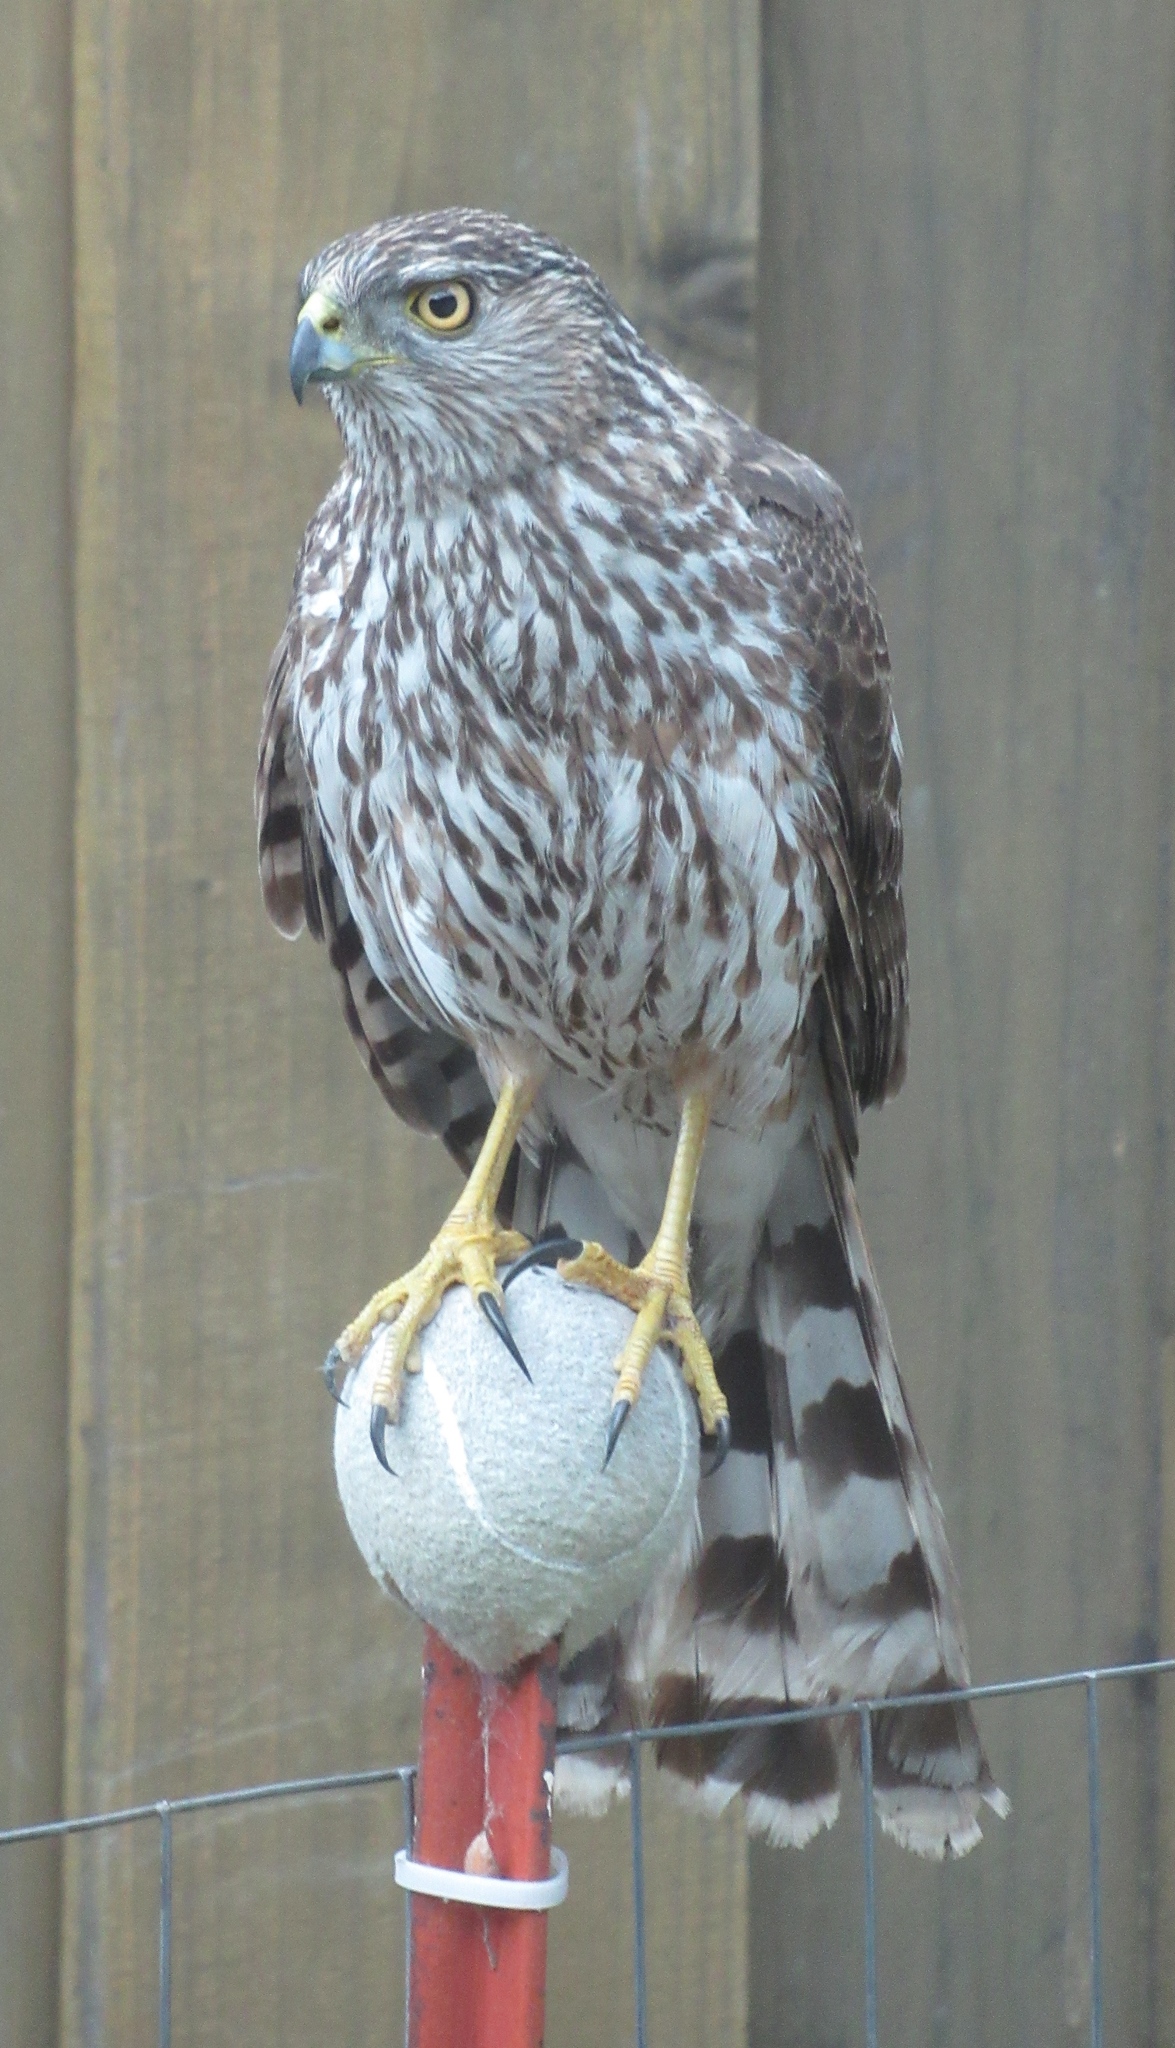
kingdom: Animalia
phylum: Chordata
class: Aves
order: Accipitriformes
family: Accipitridae
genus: Accipiter
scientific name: Accipiter cooperii
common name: Cooper's hawk
